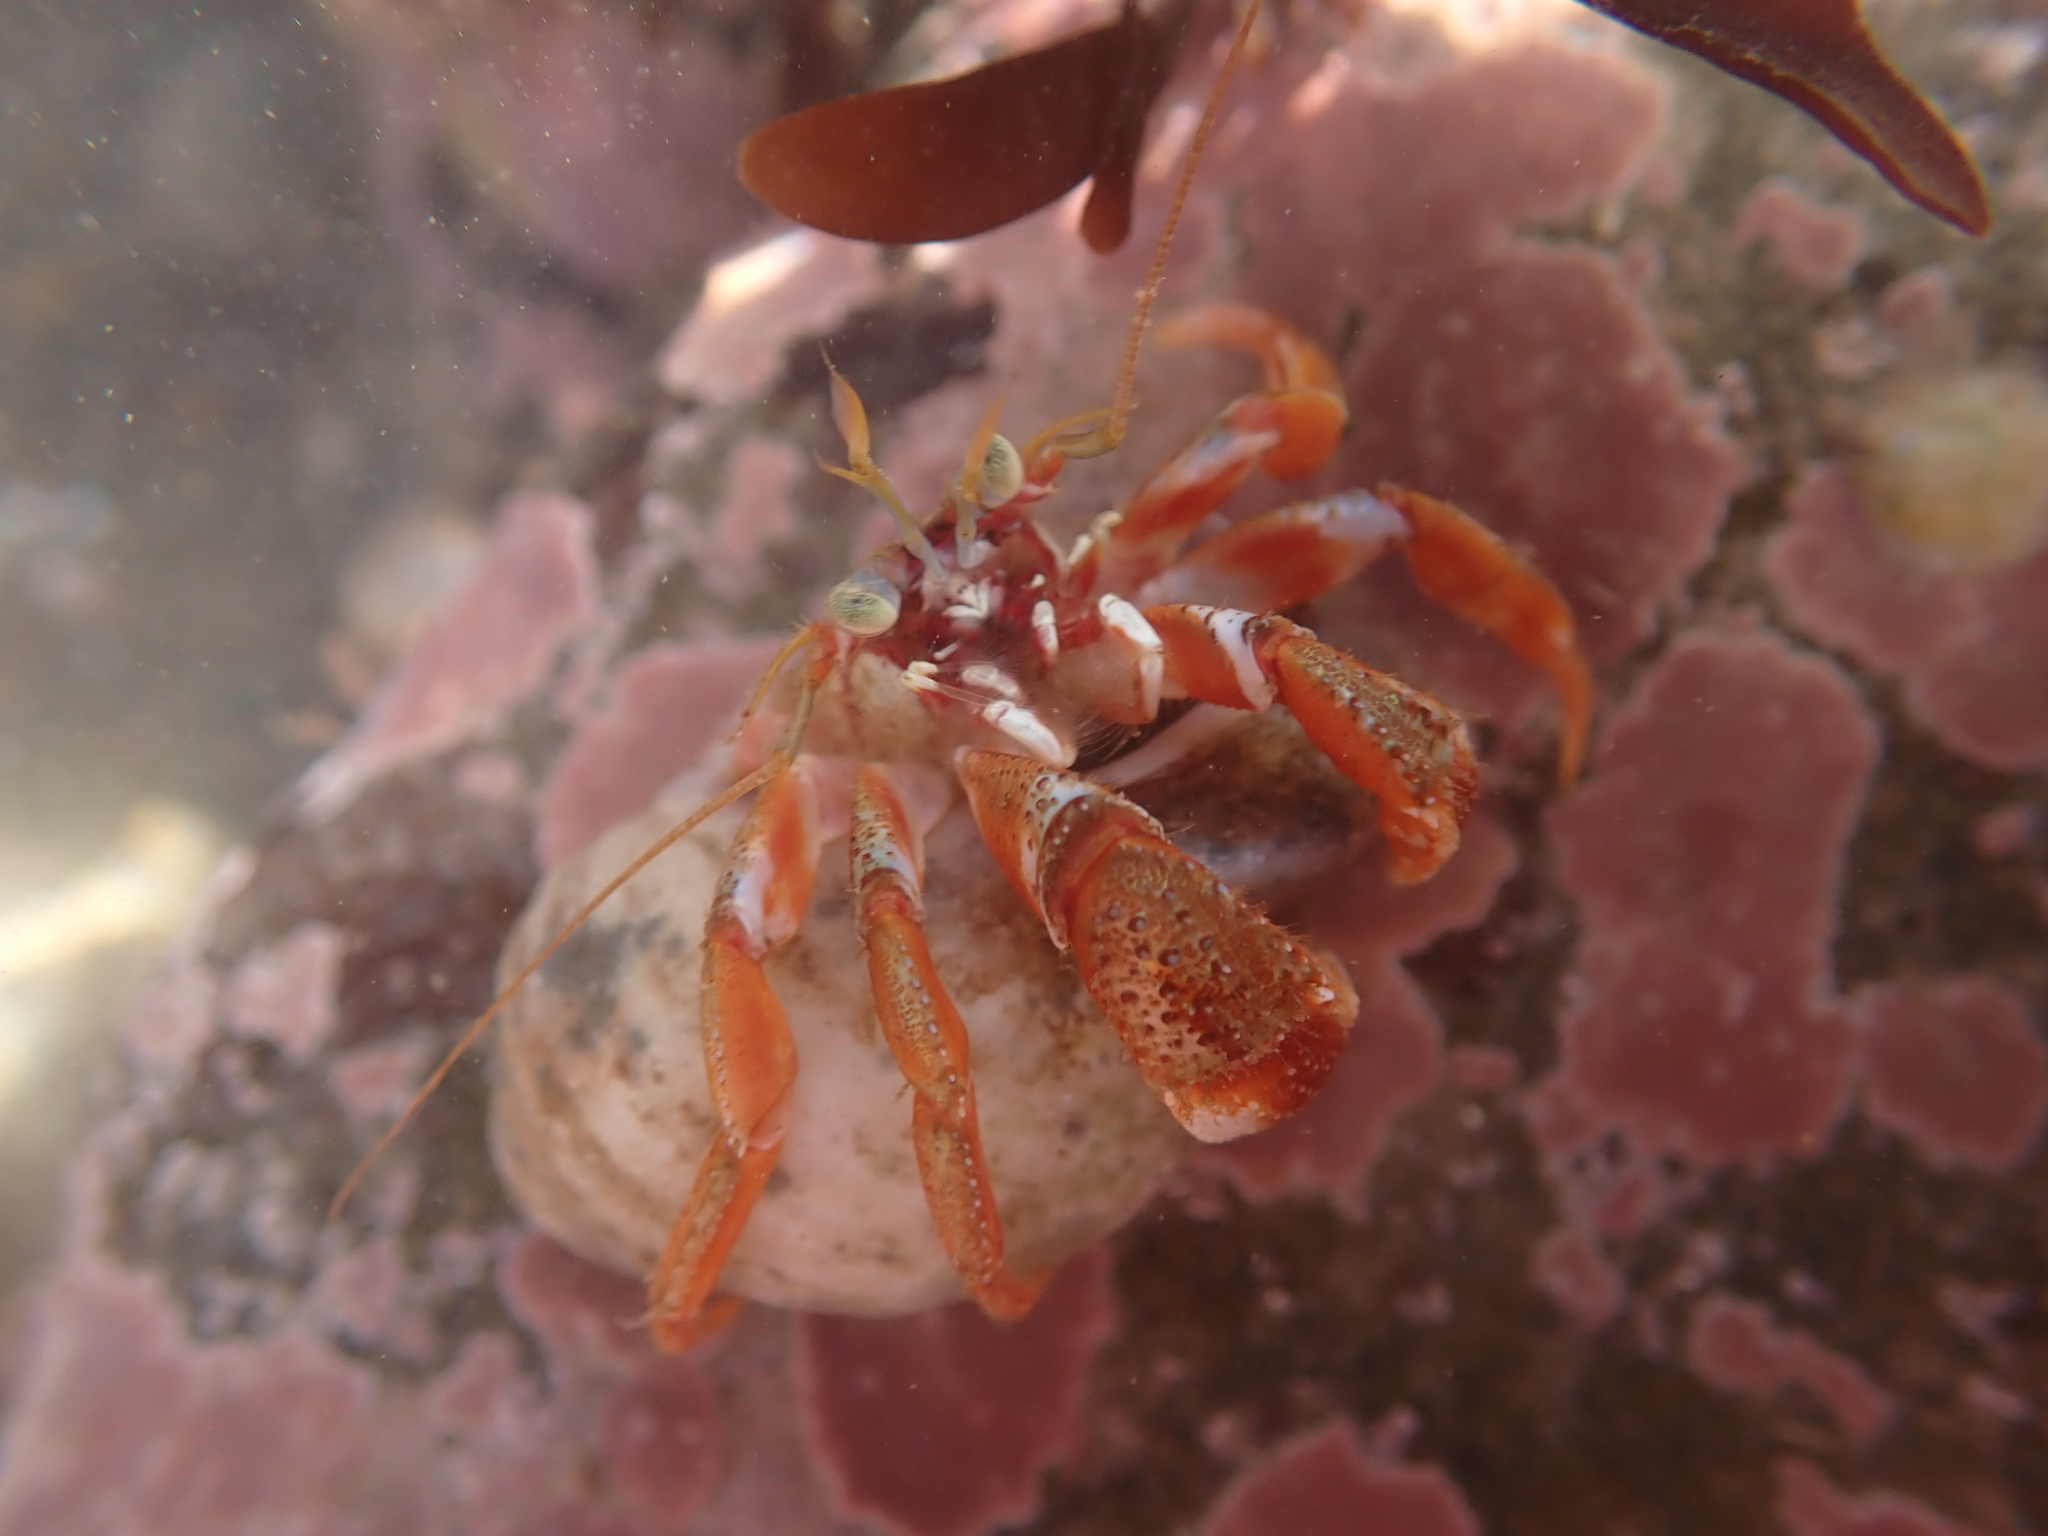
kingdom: Animalia
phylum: Arthropoda
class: Malacostraca
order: Decapoda
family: Paguridae
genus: Pagurus
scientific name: Pagurus acadianus
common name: Acadian hermit crab
